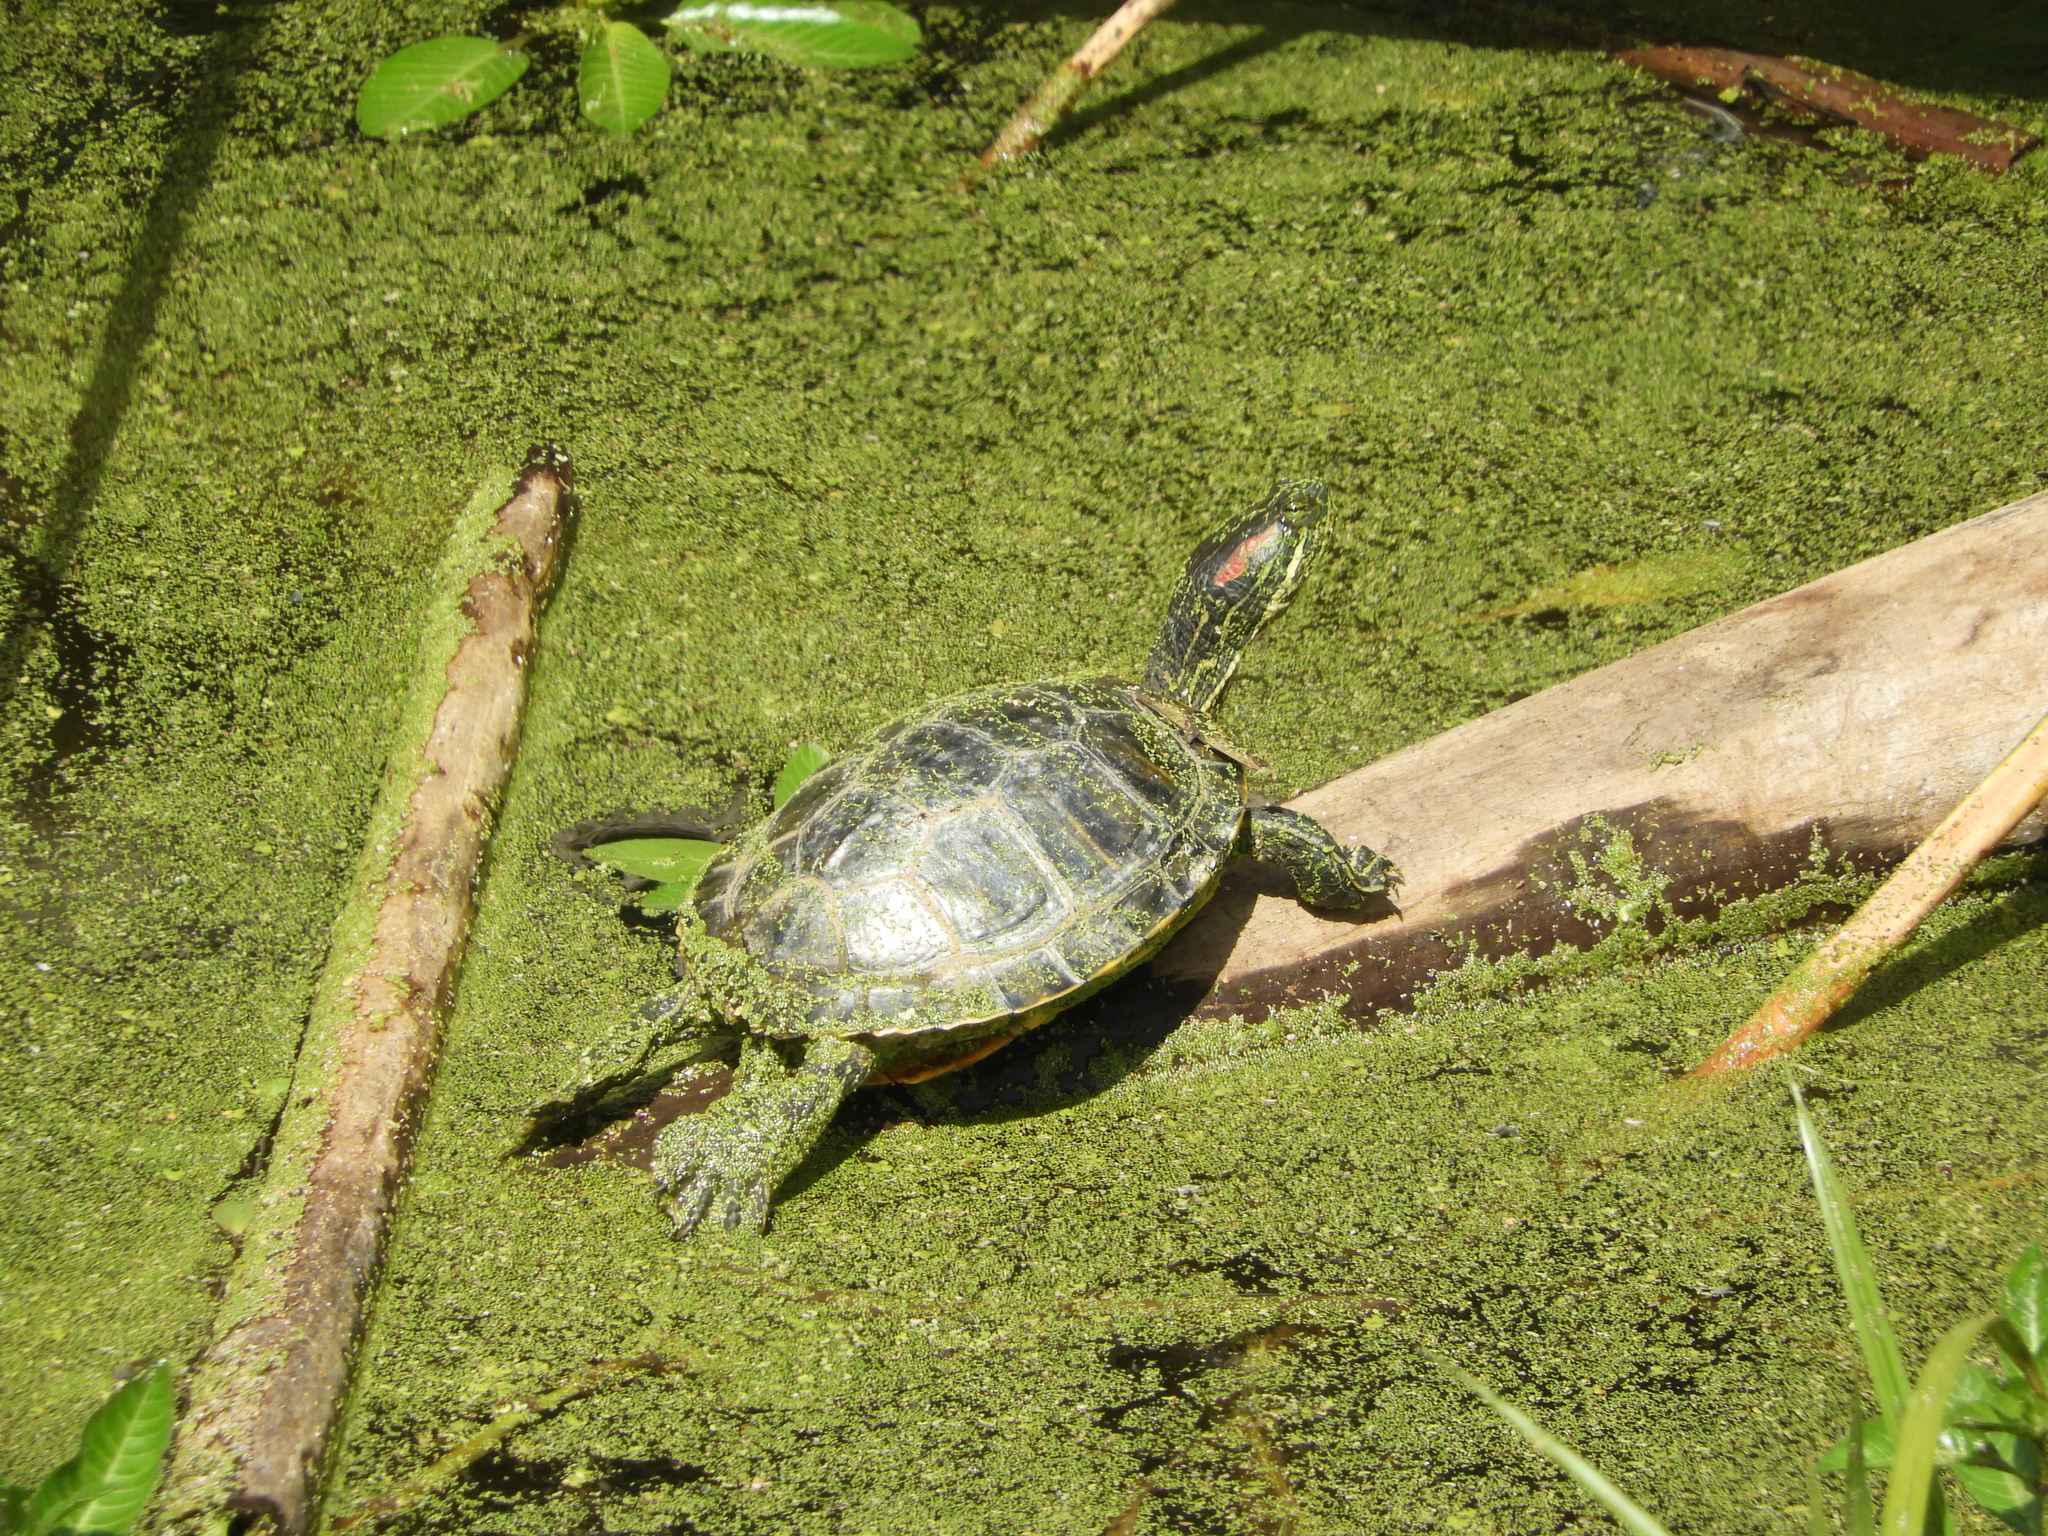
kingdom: Animalia
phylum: Chordata
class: Testudines
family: Emydidae
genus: Trachemys
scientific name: Trachemys scripta
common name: Slider
